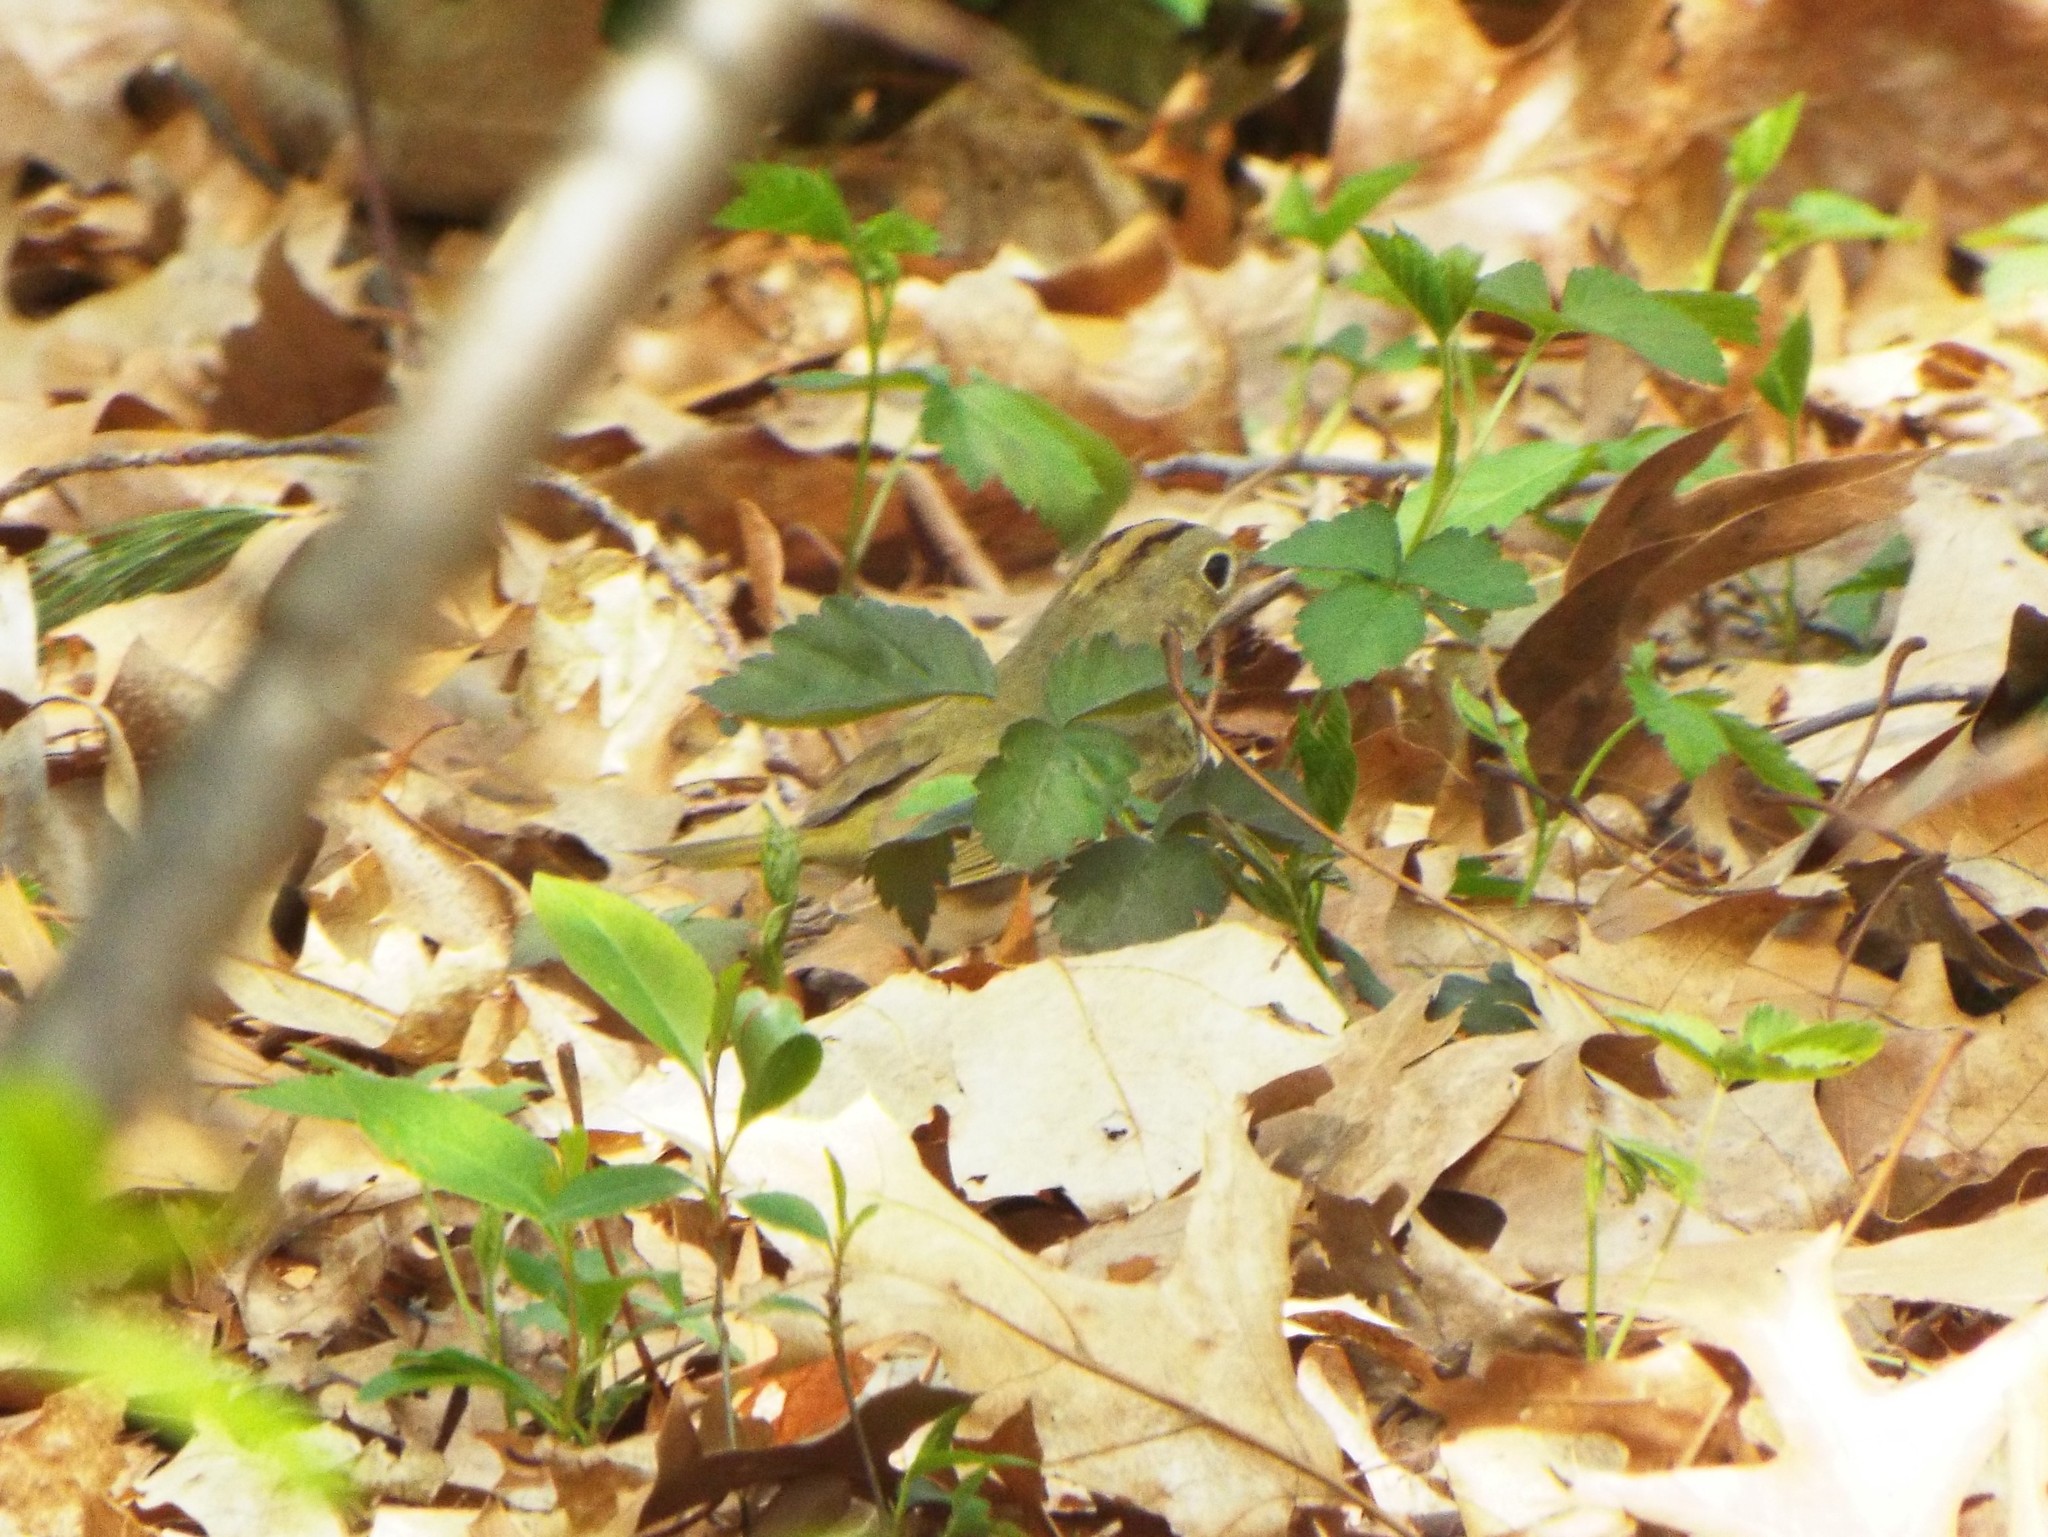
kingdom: Animalia
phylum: Chordata
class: Aves
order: Passeriformes
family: Parulidae
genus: Seiurus
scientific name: Seiurus aurocapilla
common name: Ovenbird
